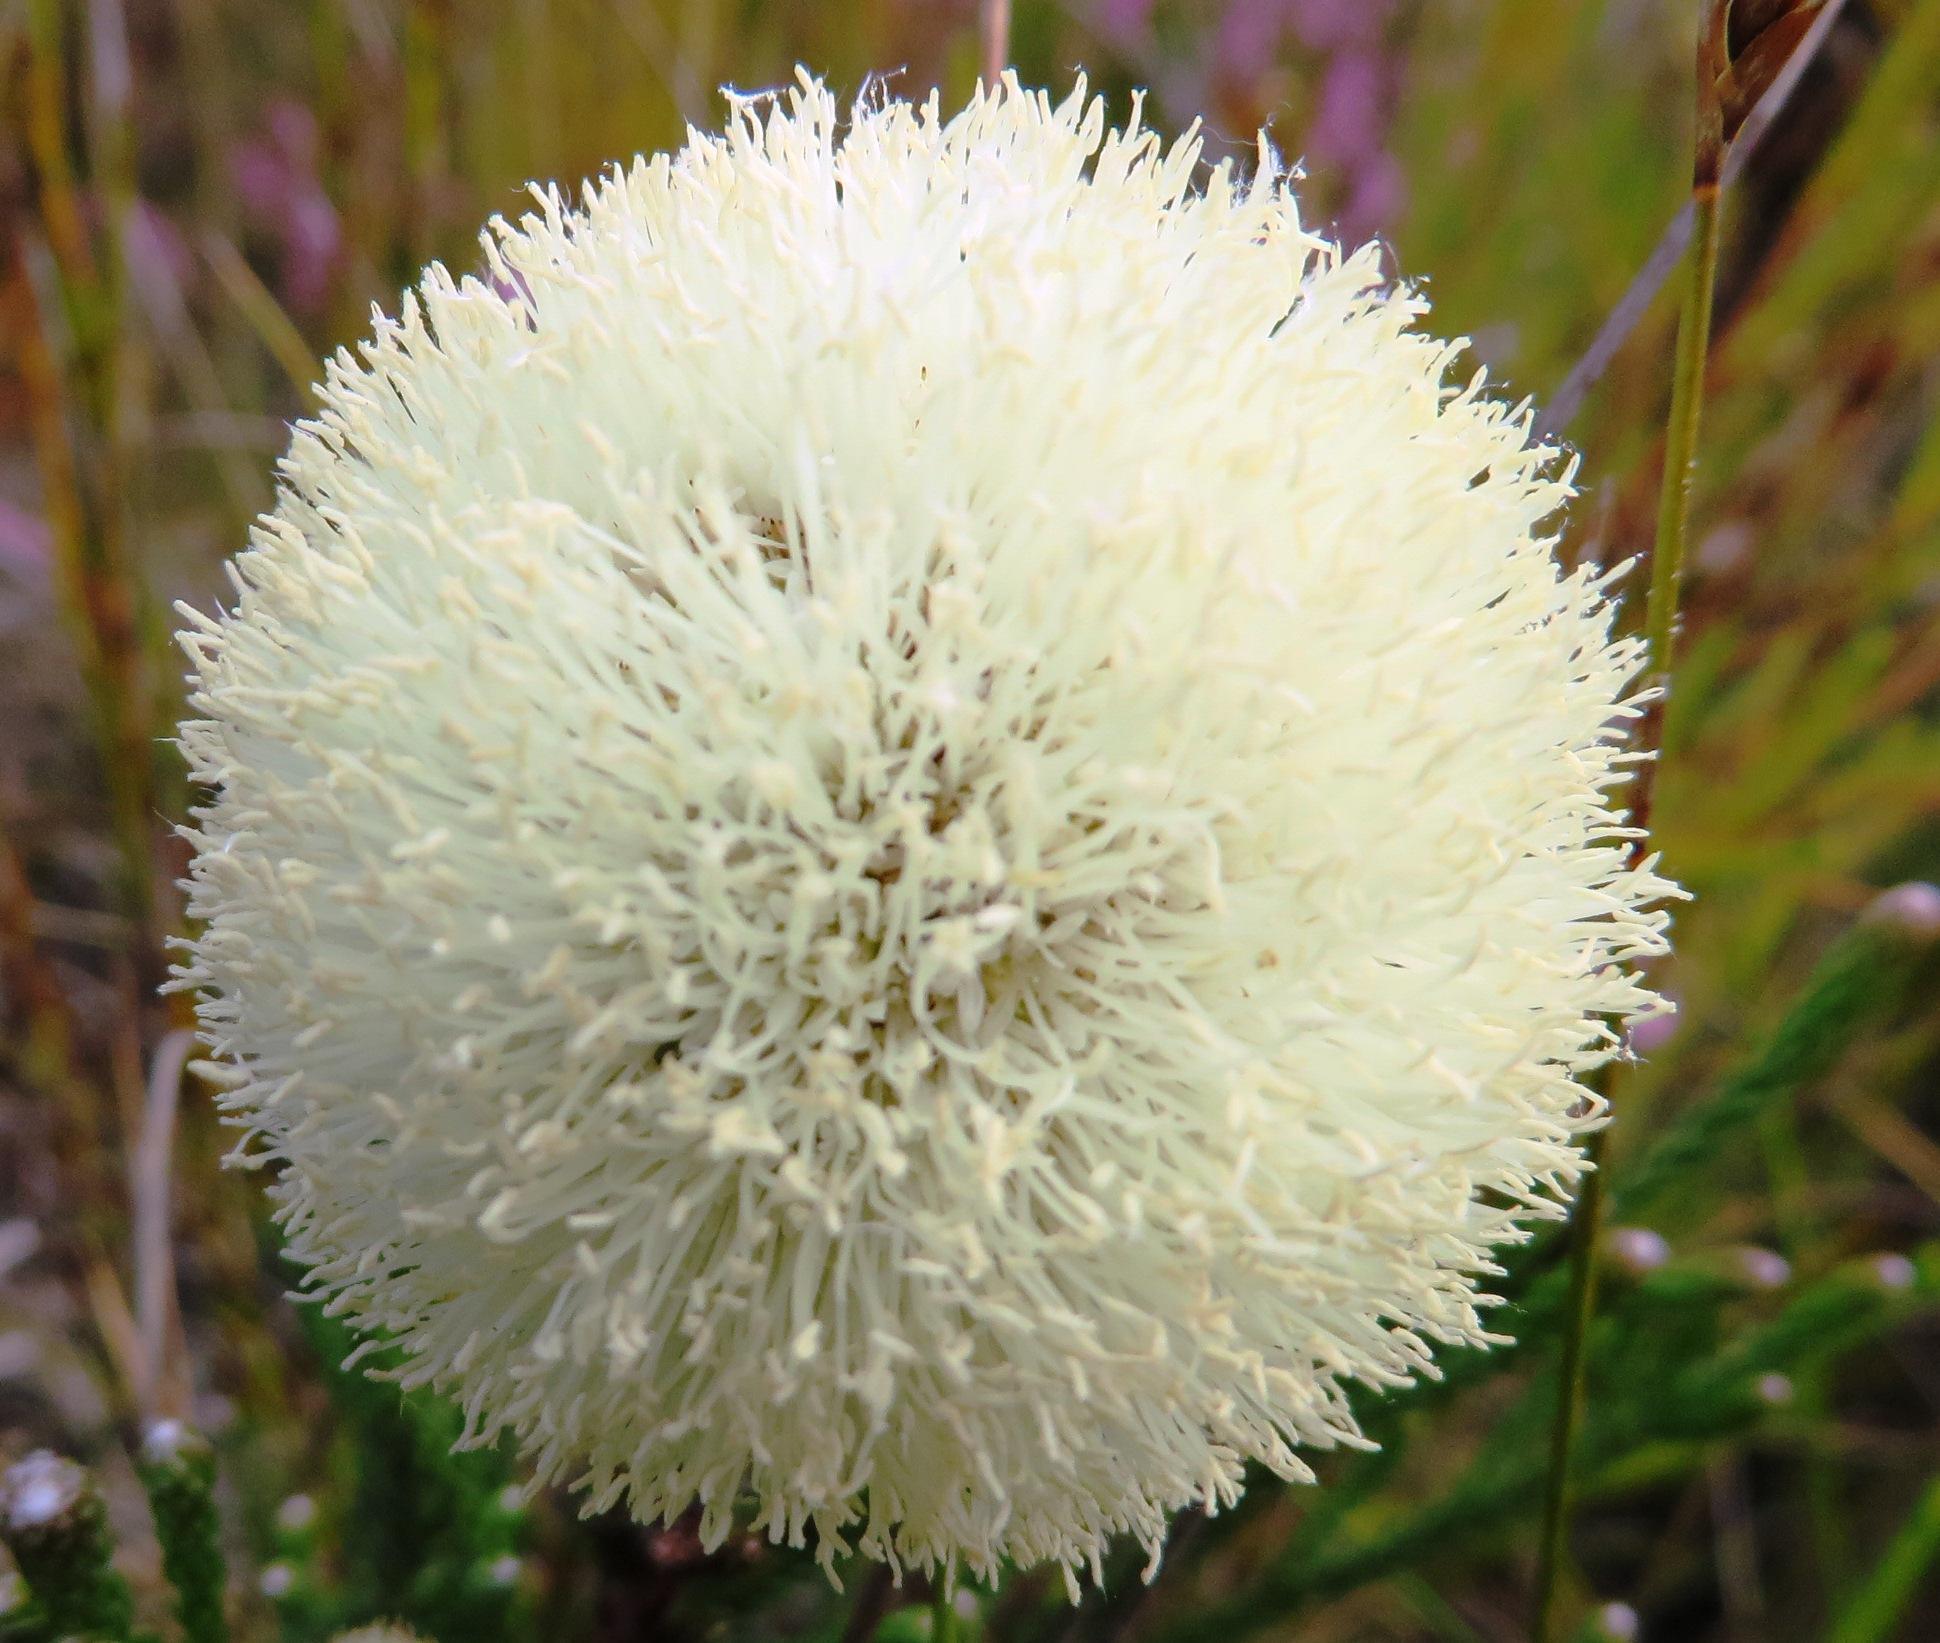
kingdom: Plantae
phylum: Tracheophyta
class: Magnoliopsida
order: Bruniales
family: Bruniaceae
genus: Brunia
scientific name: Brunia fragarioides
